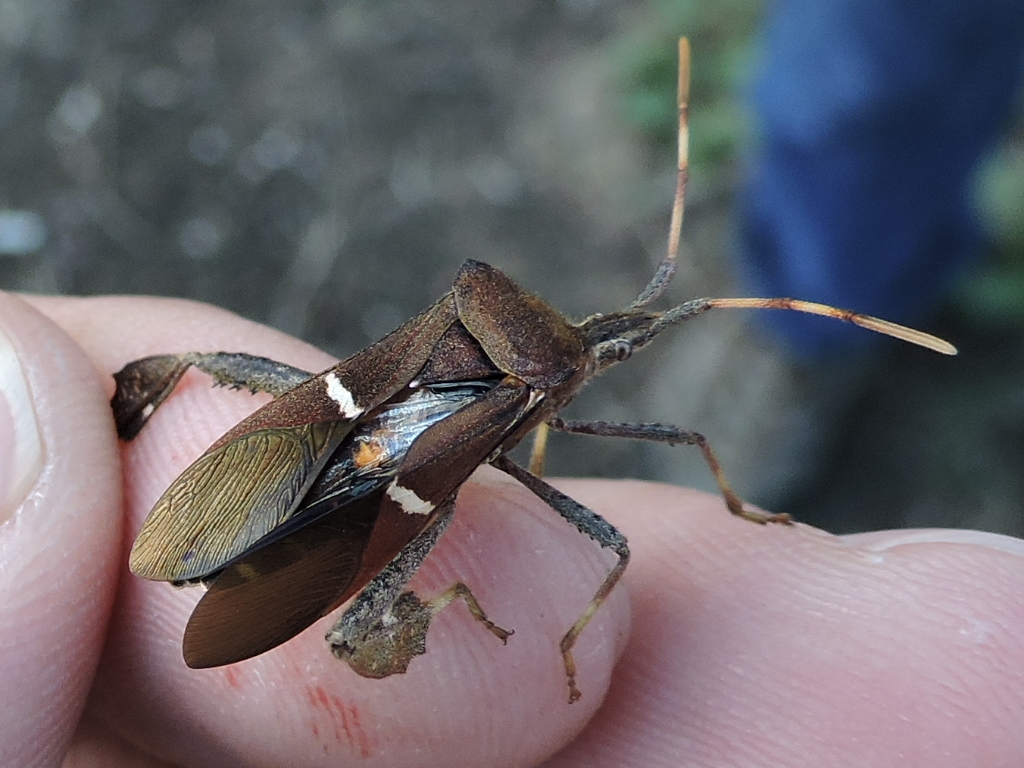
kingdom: Animalia
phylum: Arthropoda
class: Insecta
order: Hemiptera
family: Coreidae
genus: Leptoglossus
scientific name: Leptoglossus phyllopus
